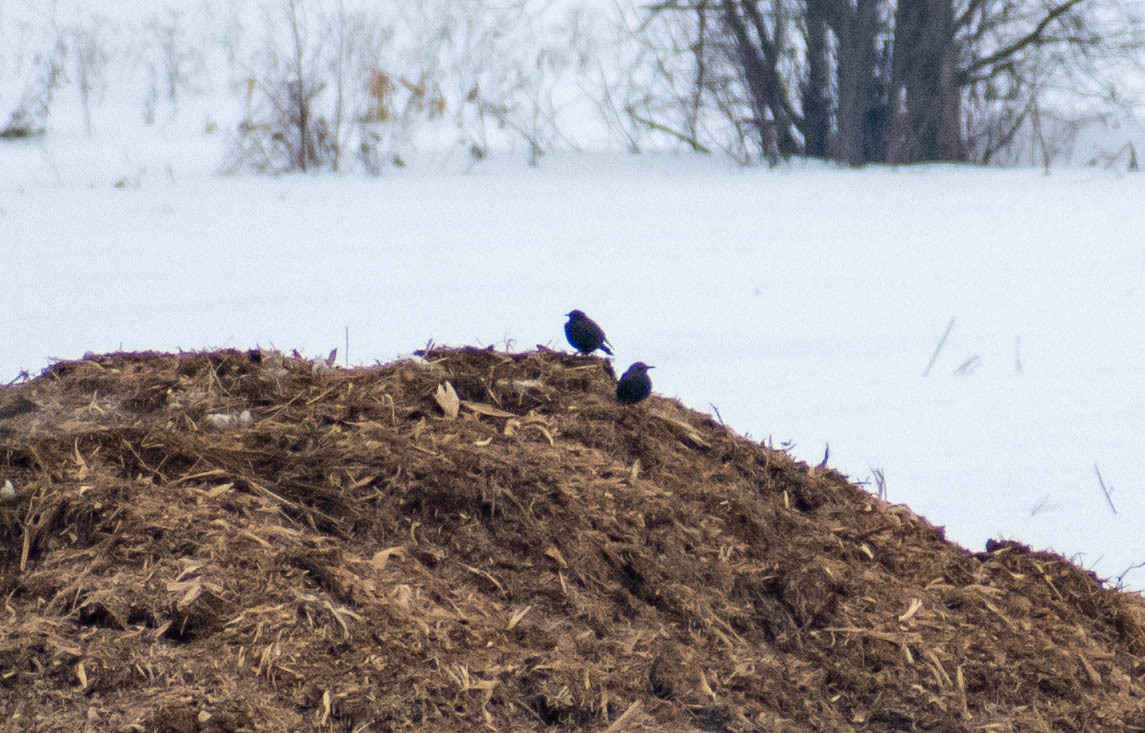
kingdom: Animalia
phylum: Chordata
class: Aves
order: Passeriformes
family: Sturnidae
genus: Sturnus
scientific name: Sturnus vulgaris
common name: Common starling
